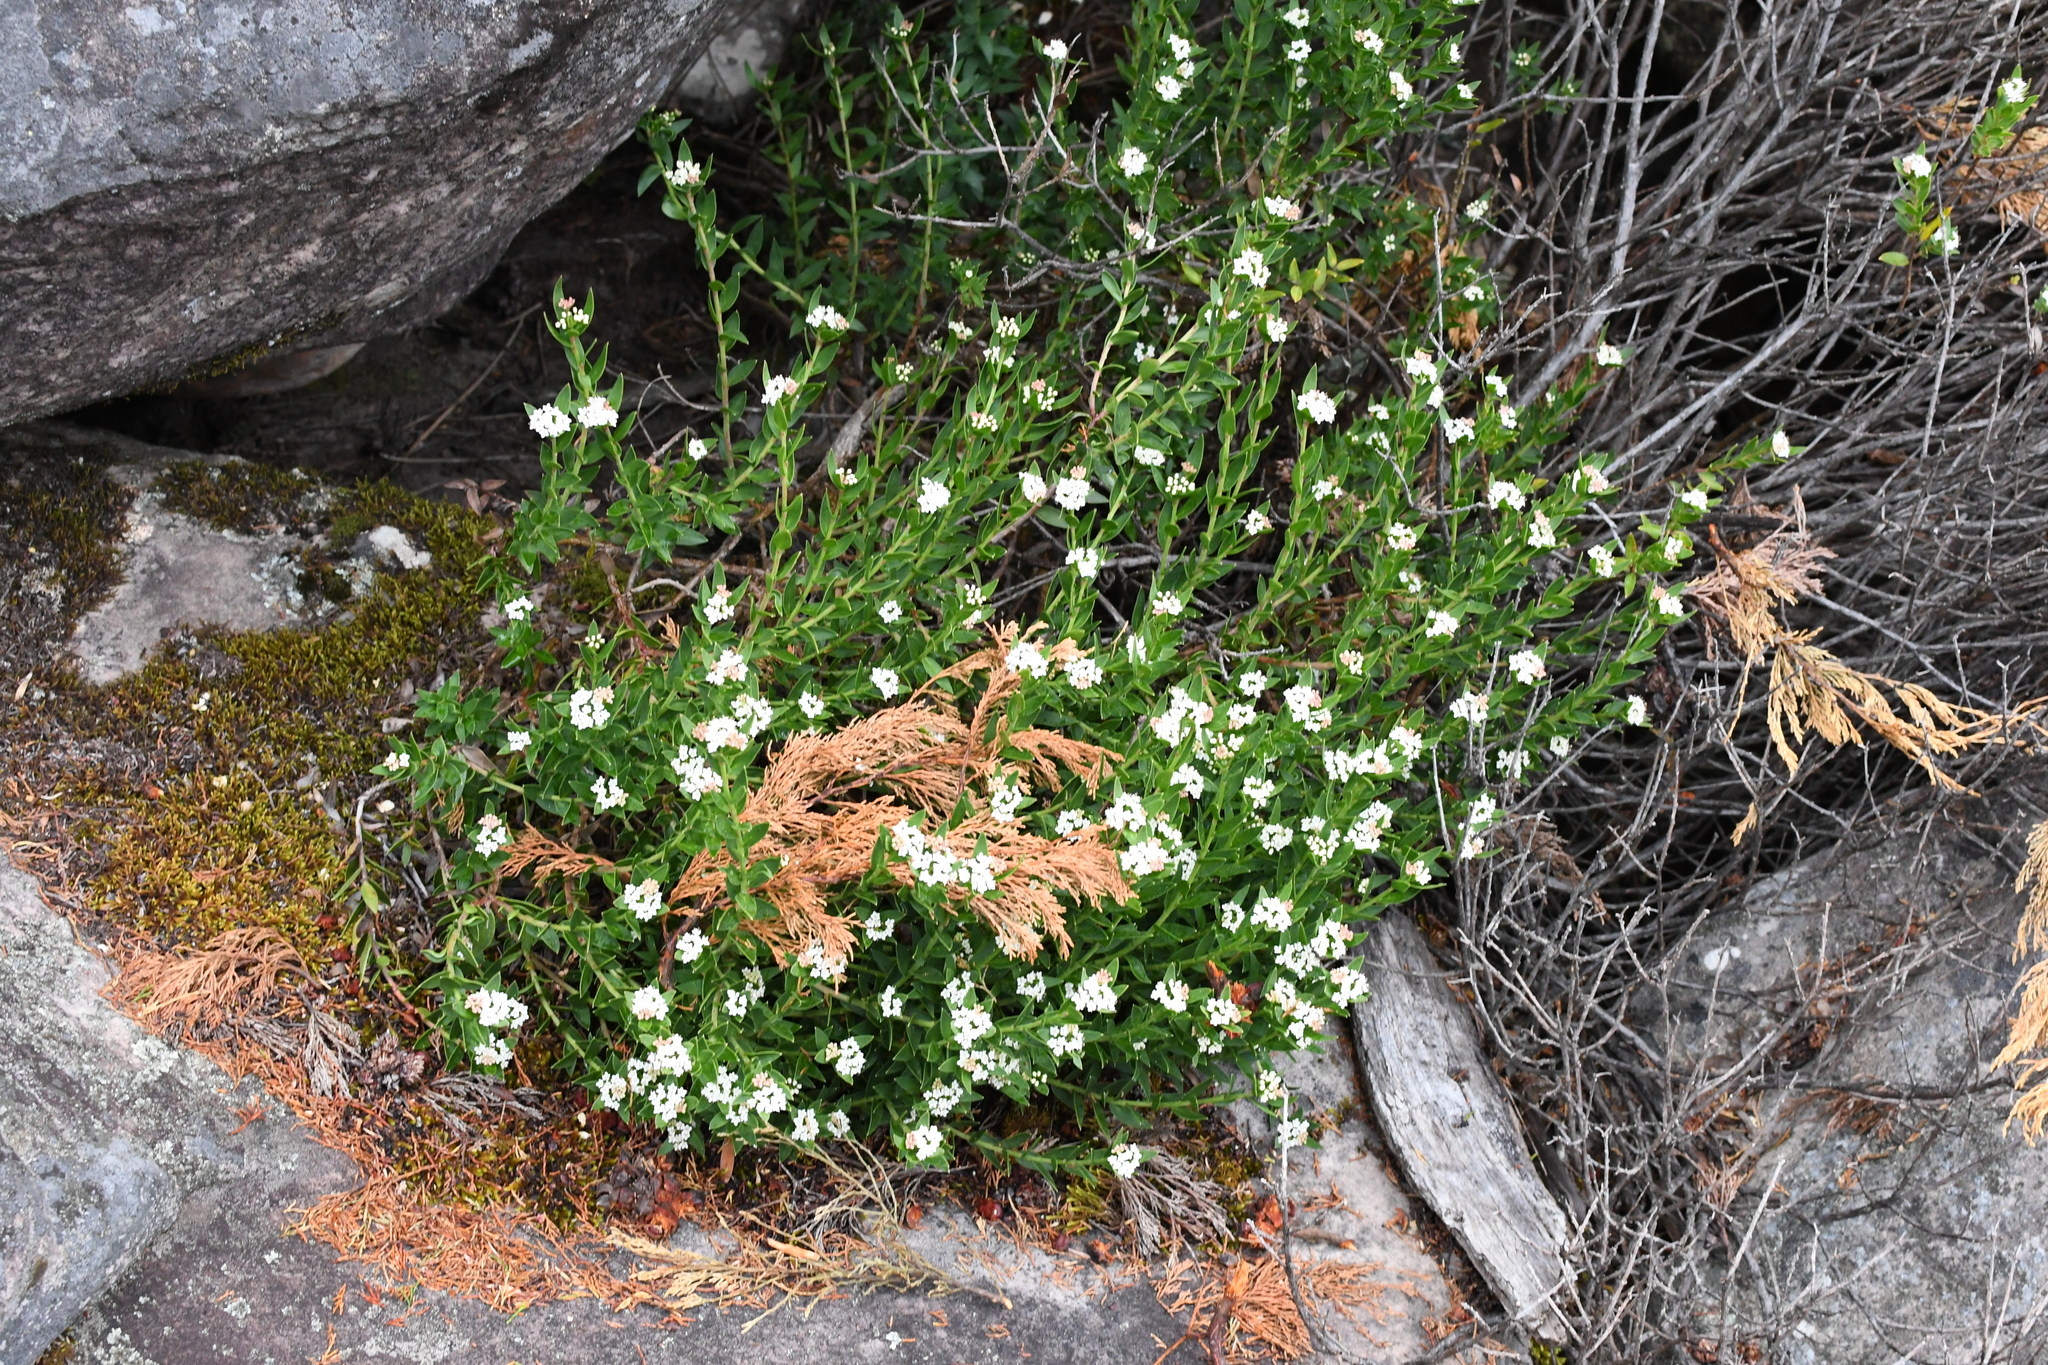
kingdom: Plantae
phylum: Tracheophyta
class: Magnoliopsida
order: Apiales
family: Apiaceae
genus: Platysace
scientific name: Platysace lanceolata
